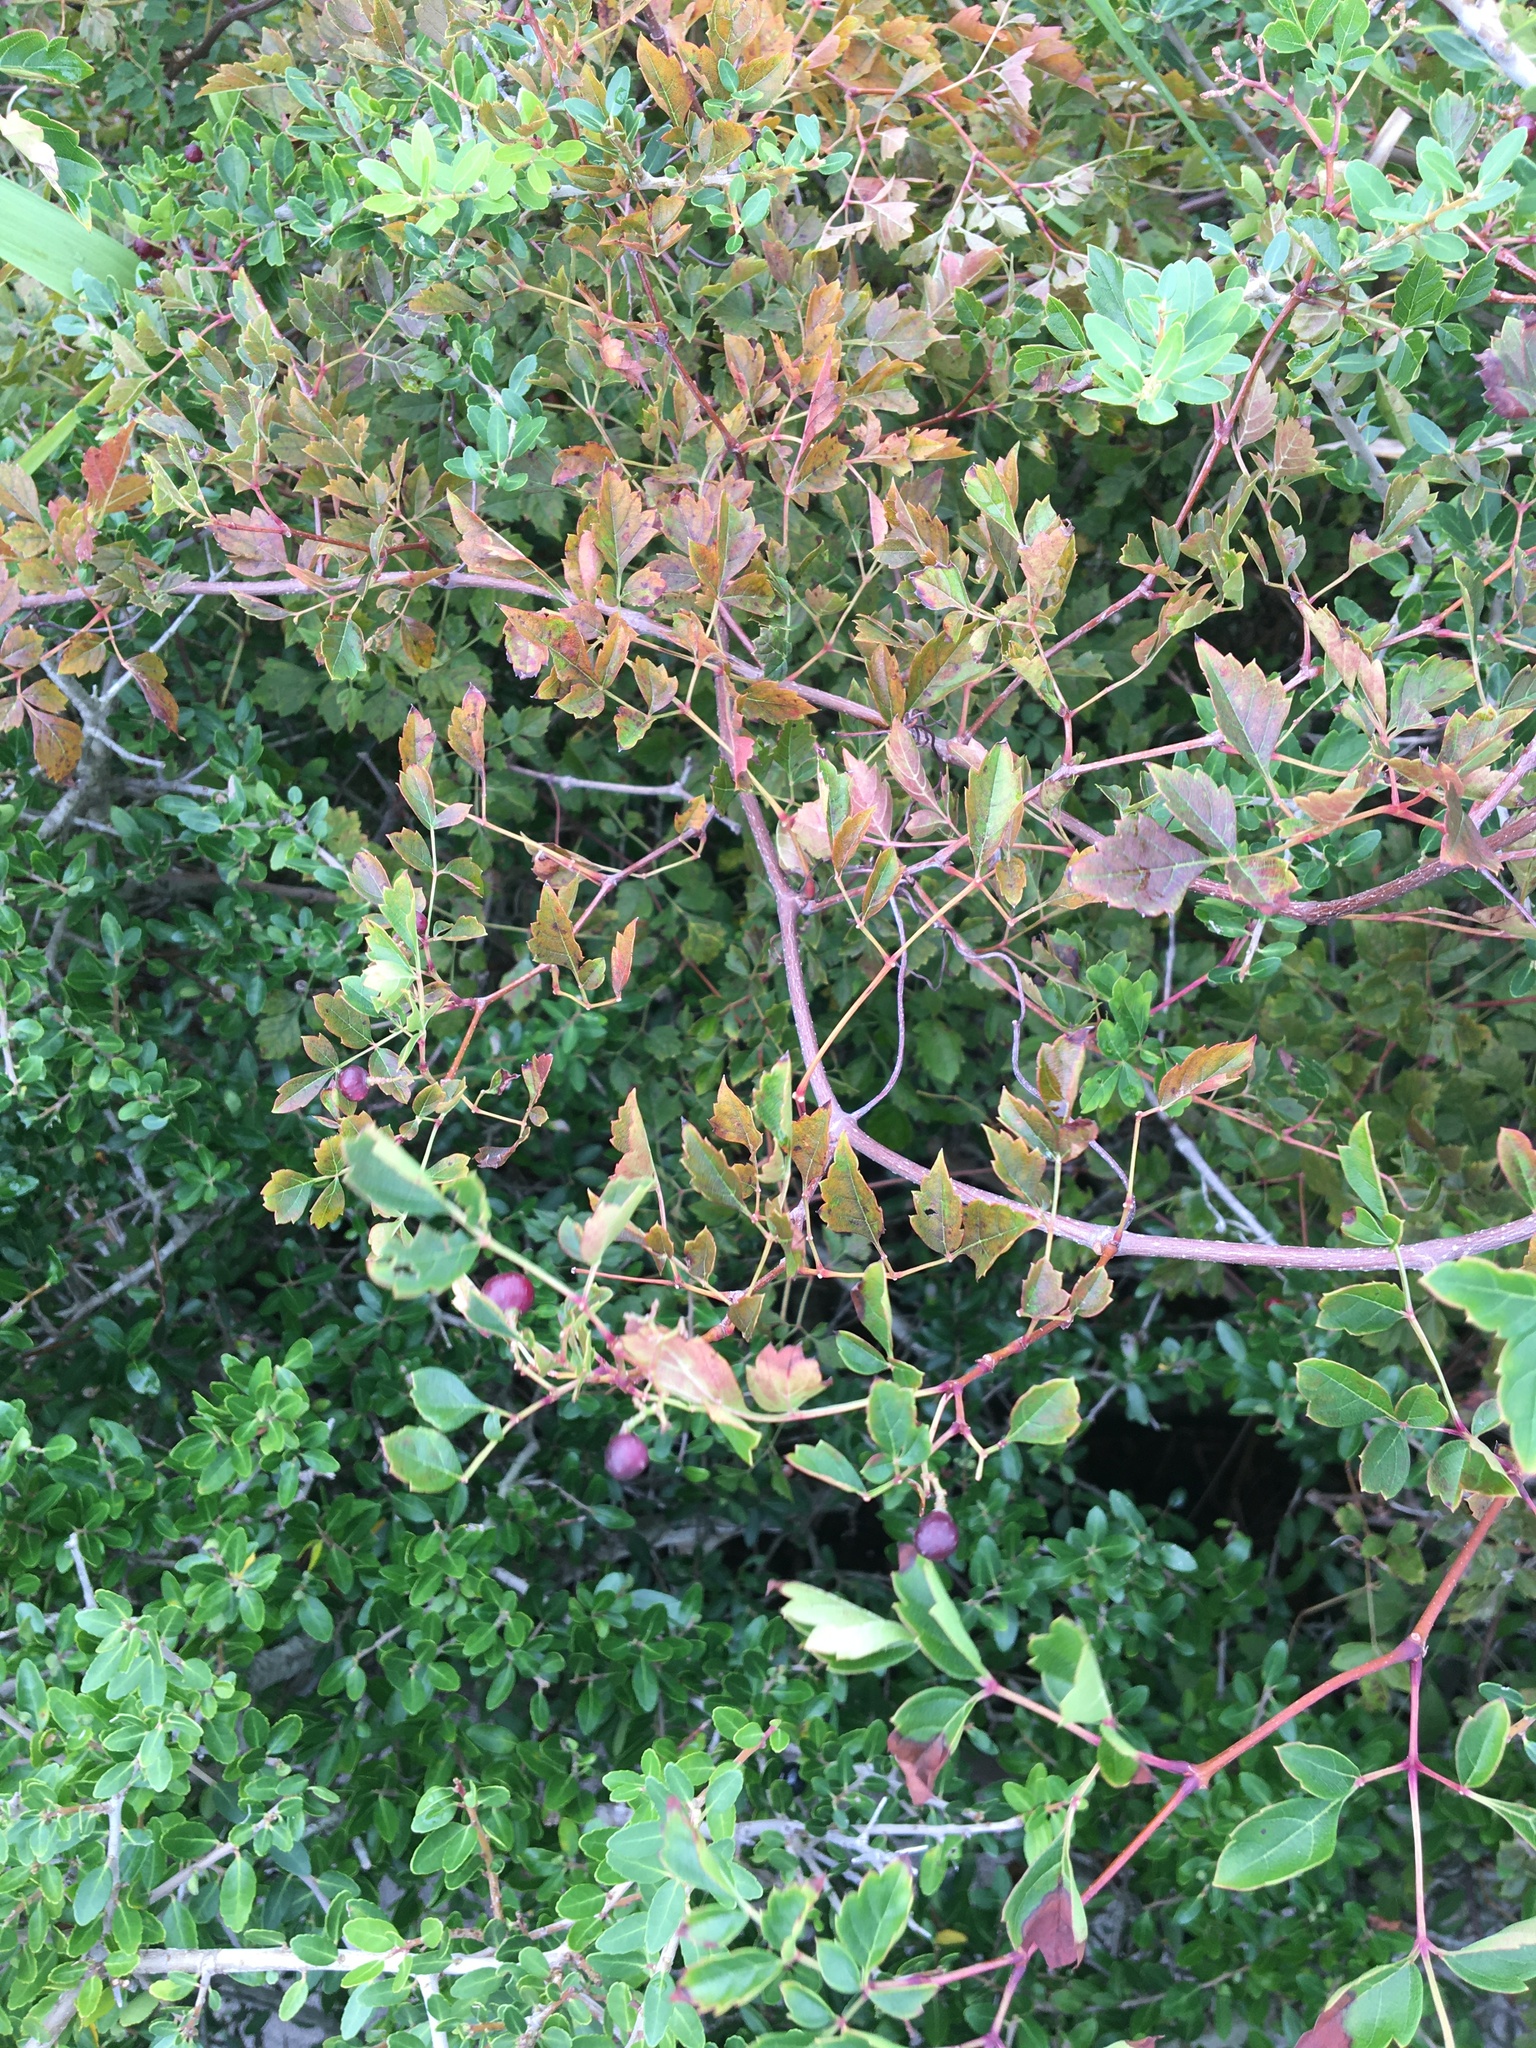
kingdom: Plantae
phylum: Tracheophyta
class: Magnoliopsida
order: Vitales
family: Vitaceae
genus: Nekemias
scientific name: Nekemias arborea
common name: Peppervine
